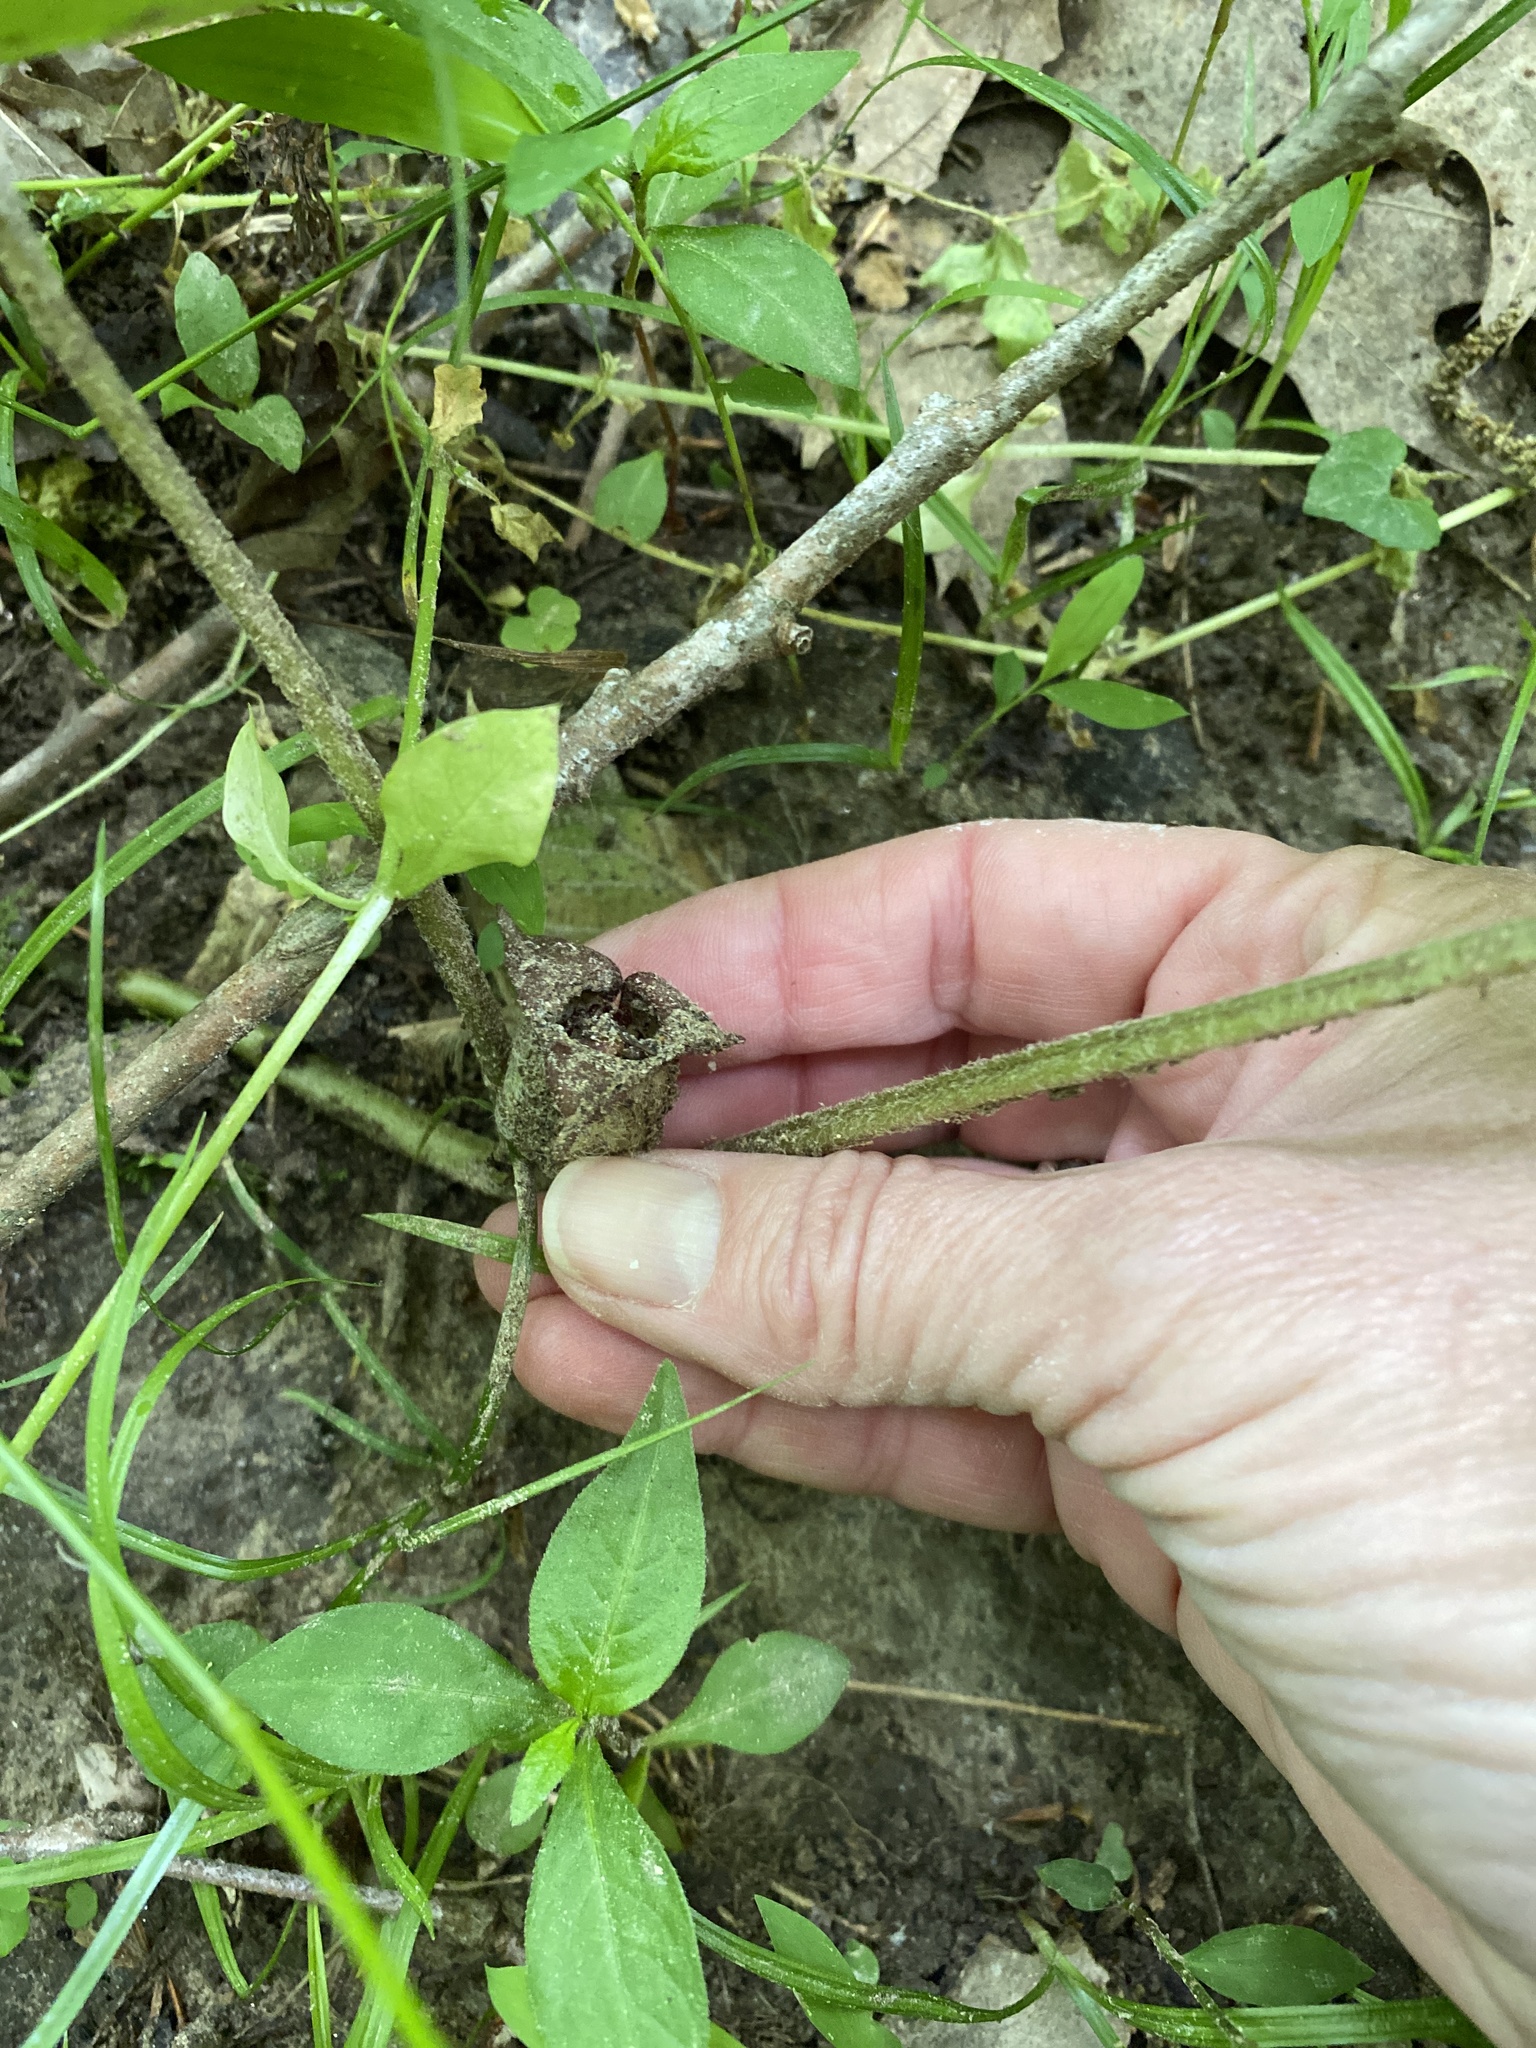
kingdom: Plantae
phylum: Tracheophyta
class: Magnoliopsida
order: Piperales
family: Aristolochiaceae
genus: Asarum
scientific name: Asarum canadense
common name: Wild ginger
